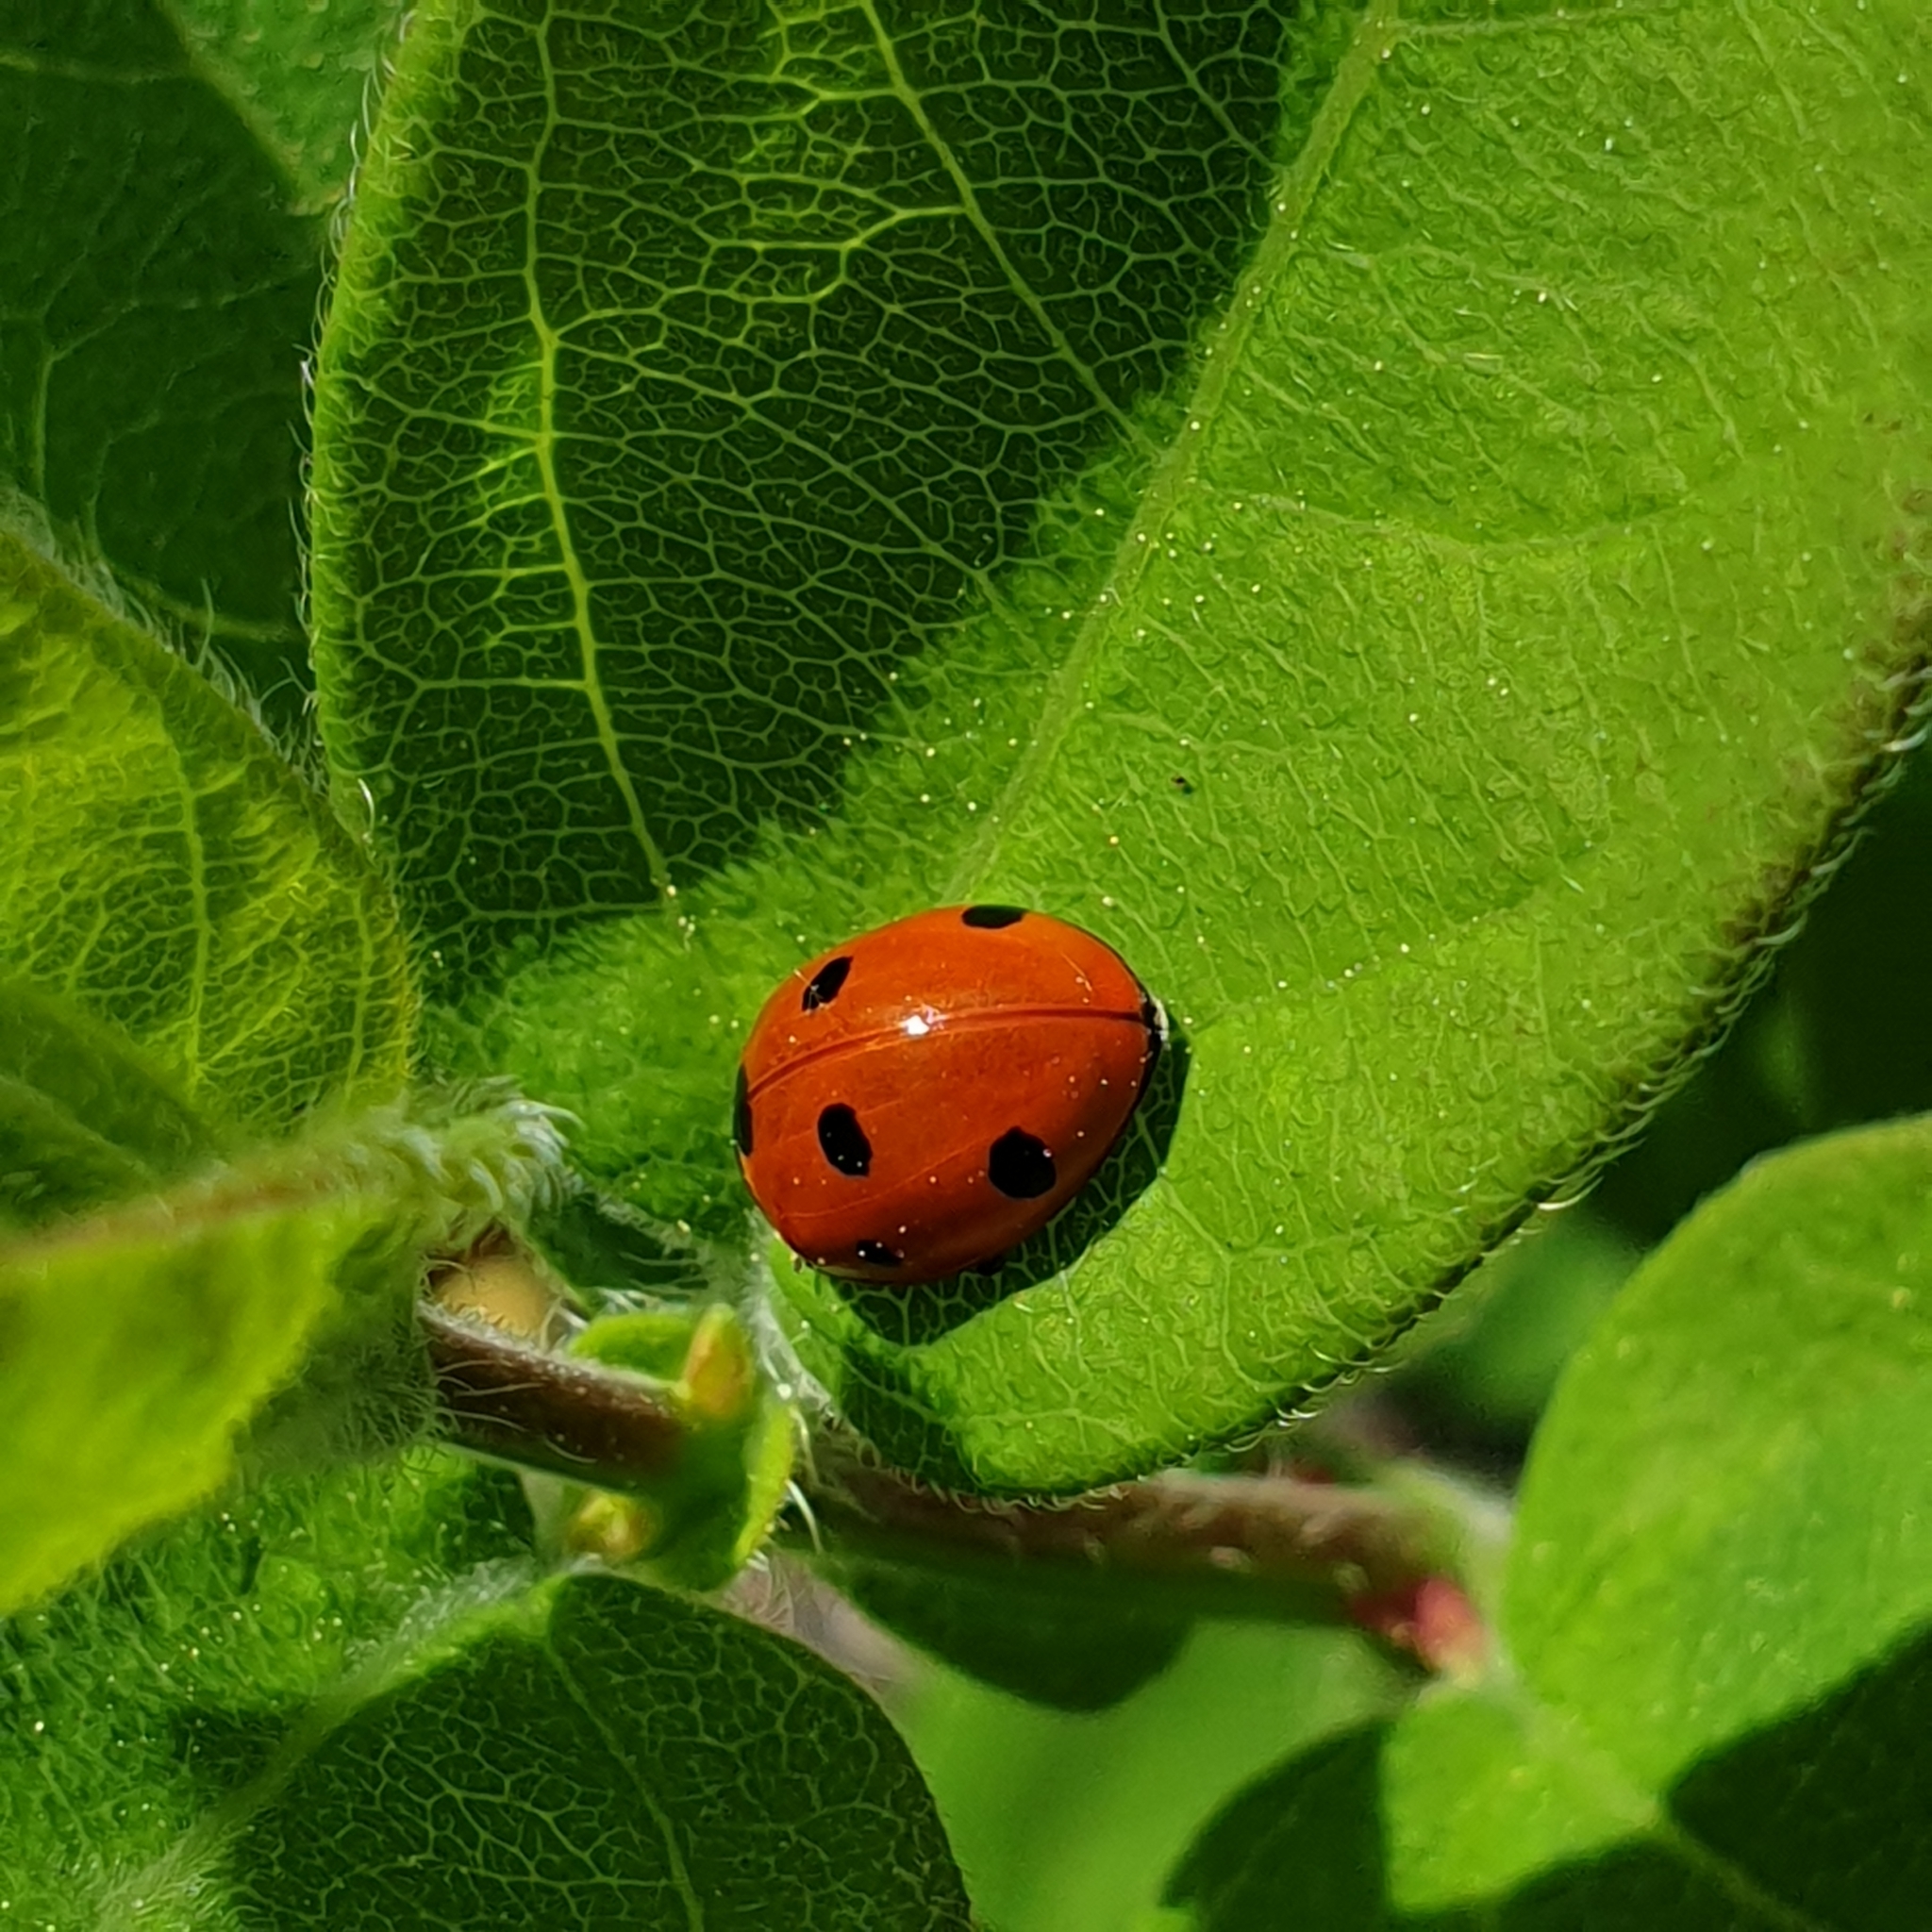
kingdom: Animalia
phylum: Arthropoda
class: Insecta
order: Coleoptera
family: Coccinellidae
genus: Coccinella
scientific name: Coccinella septempunctata
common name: Sevenspotted lady beetle
